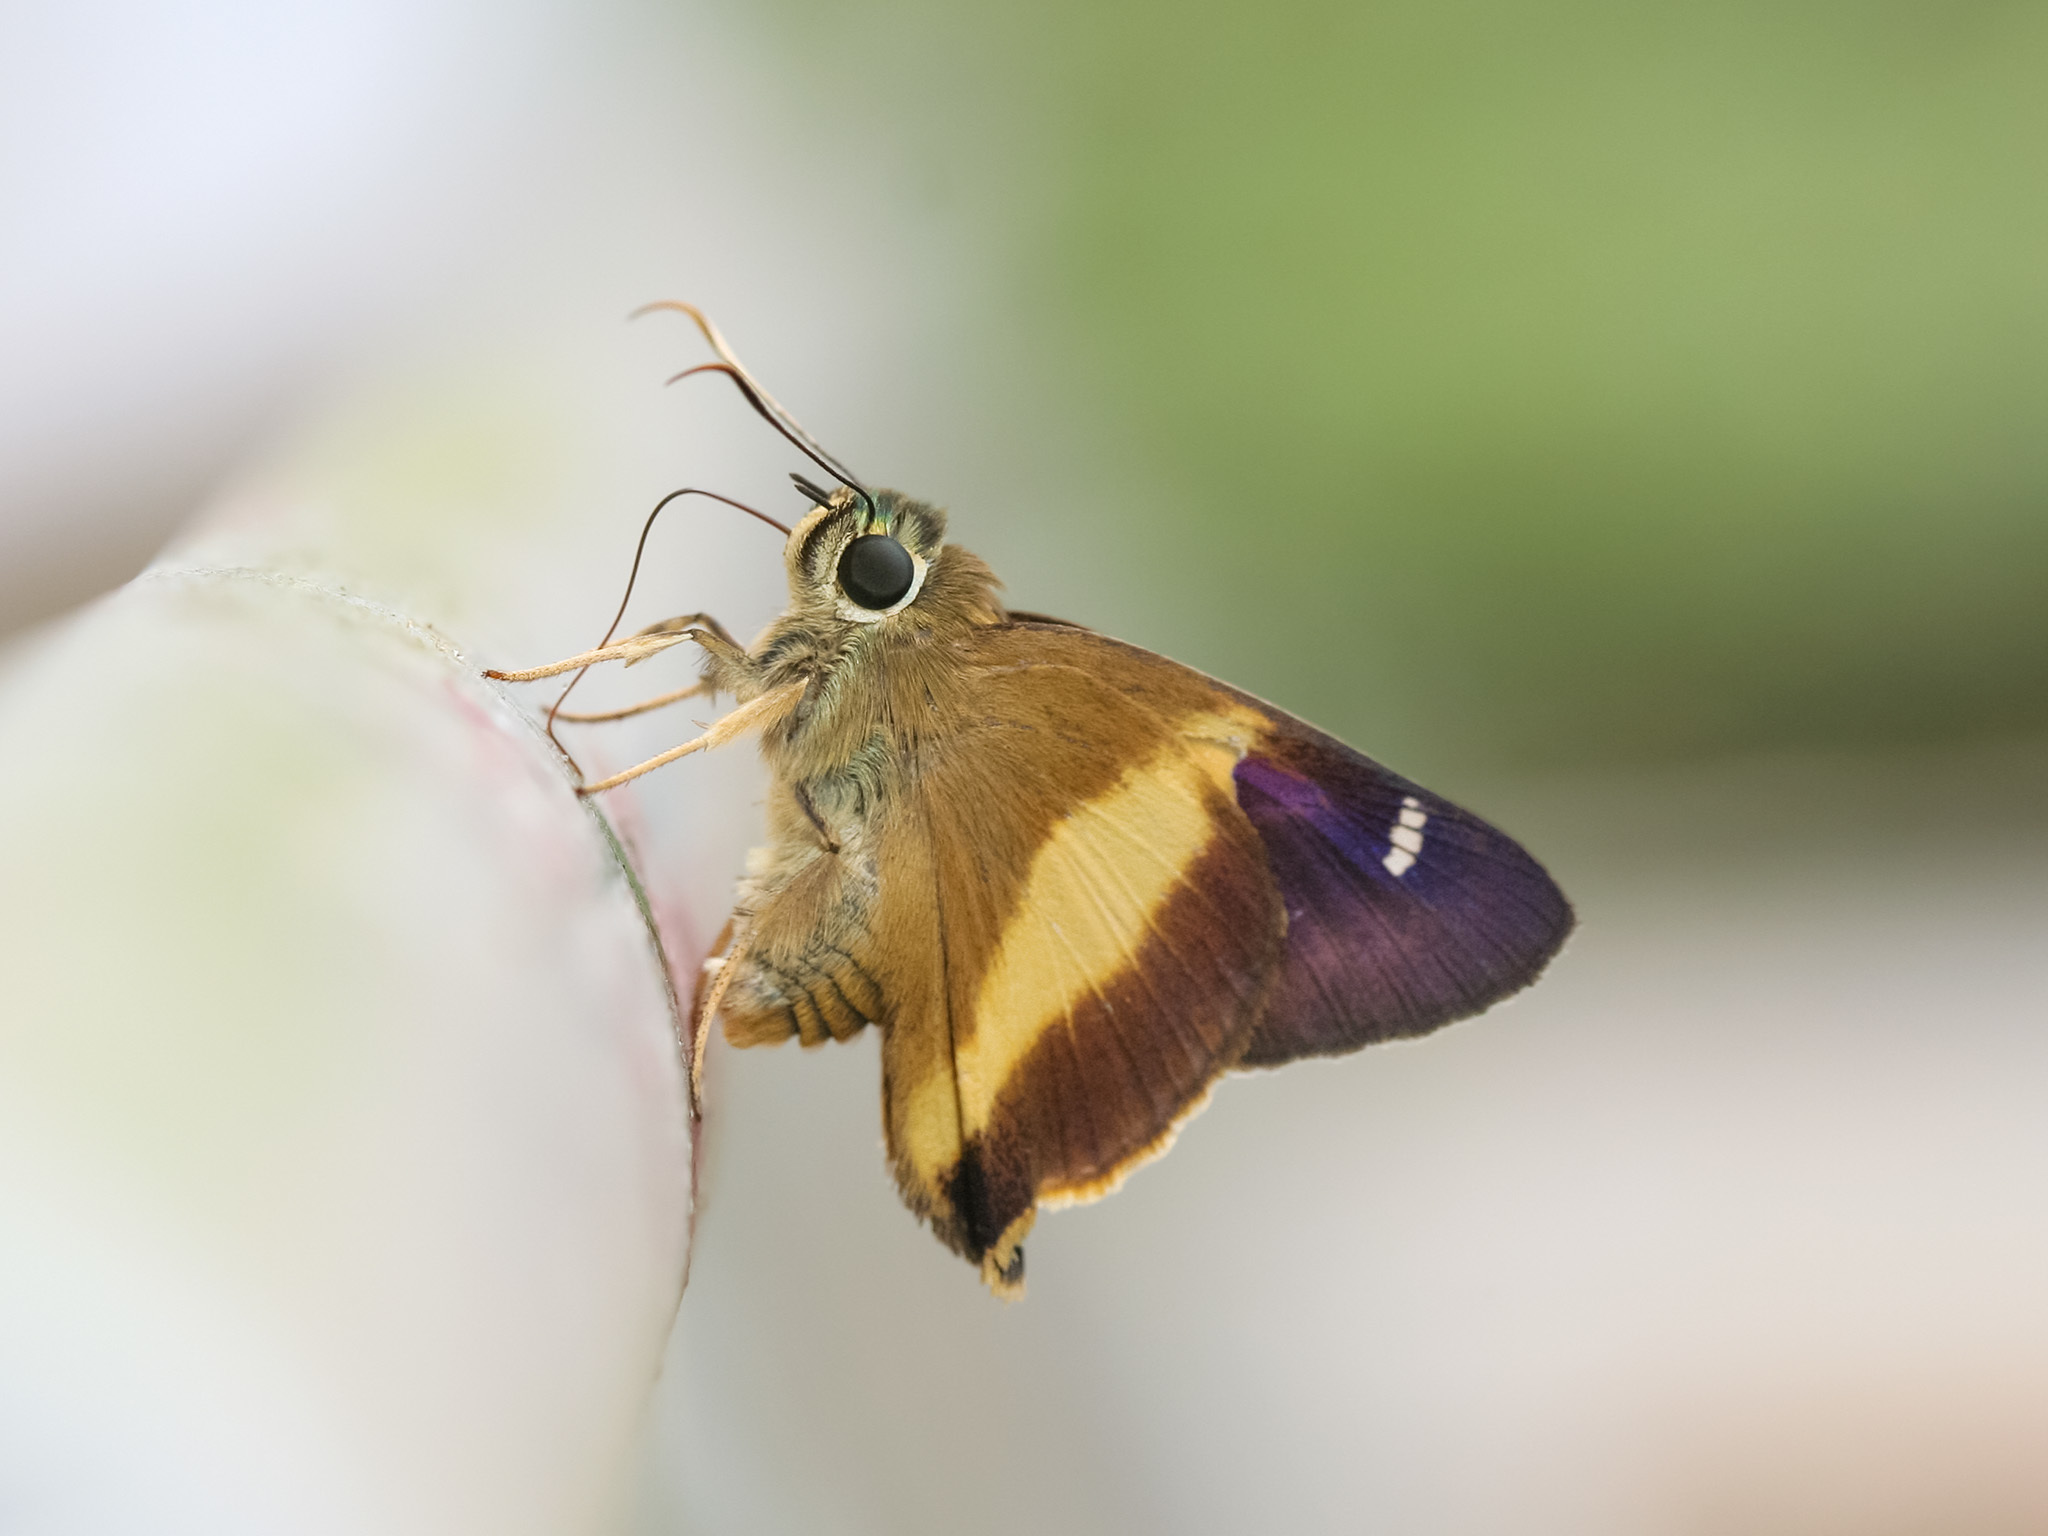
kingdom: Animalia
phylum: Arthropoda
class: Insecta
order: Lepidoptera
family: Hesperiidae
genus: Hasora
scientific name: Hasora schoenherr
